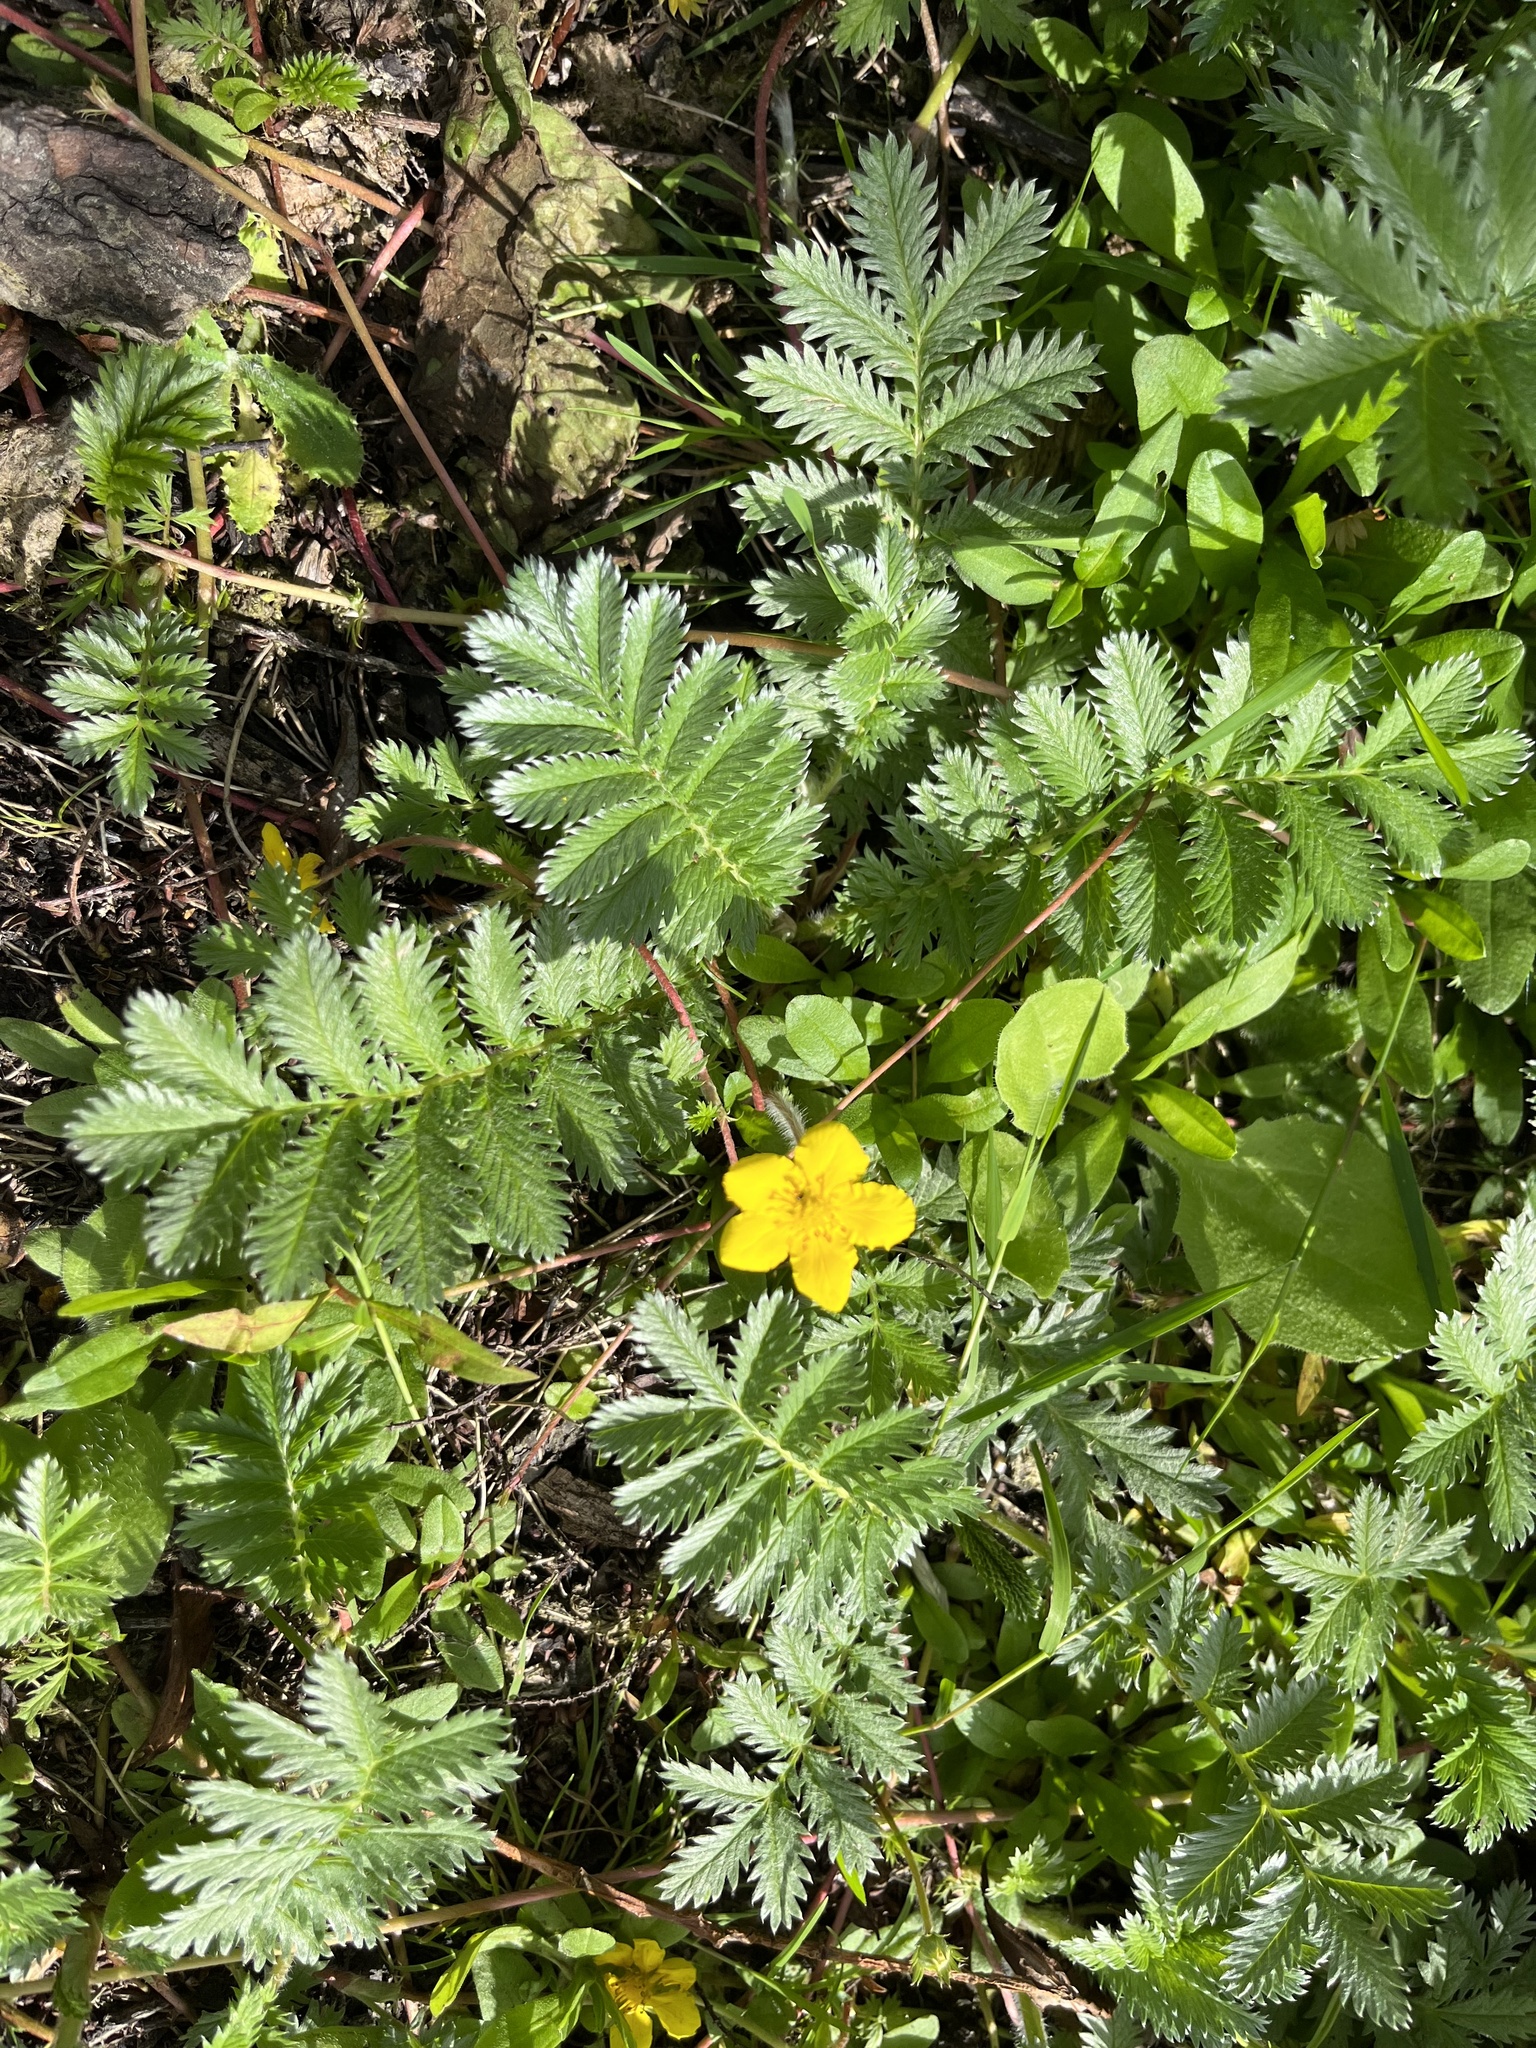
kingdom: Plantae
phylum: Tracheophyta
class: Magnoliopsida
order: Rosales
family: Rosaceae
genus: Argentina
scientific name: Argentina anserina
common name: Common silverweed
